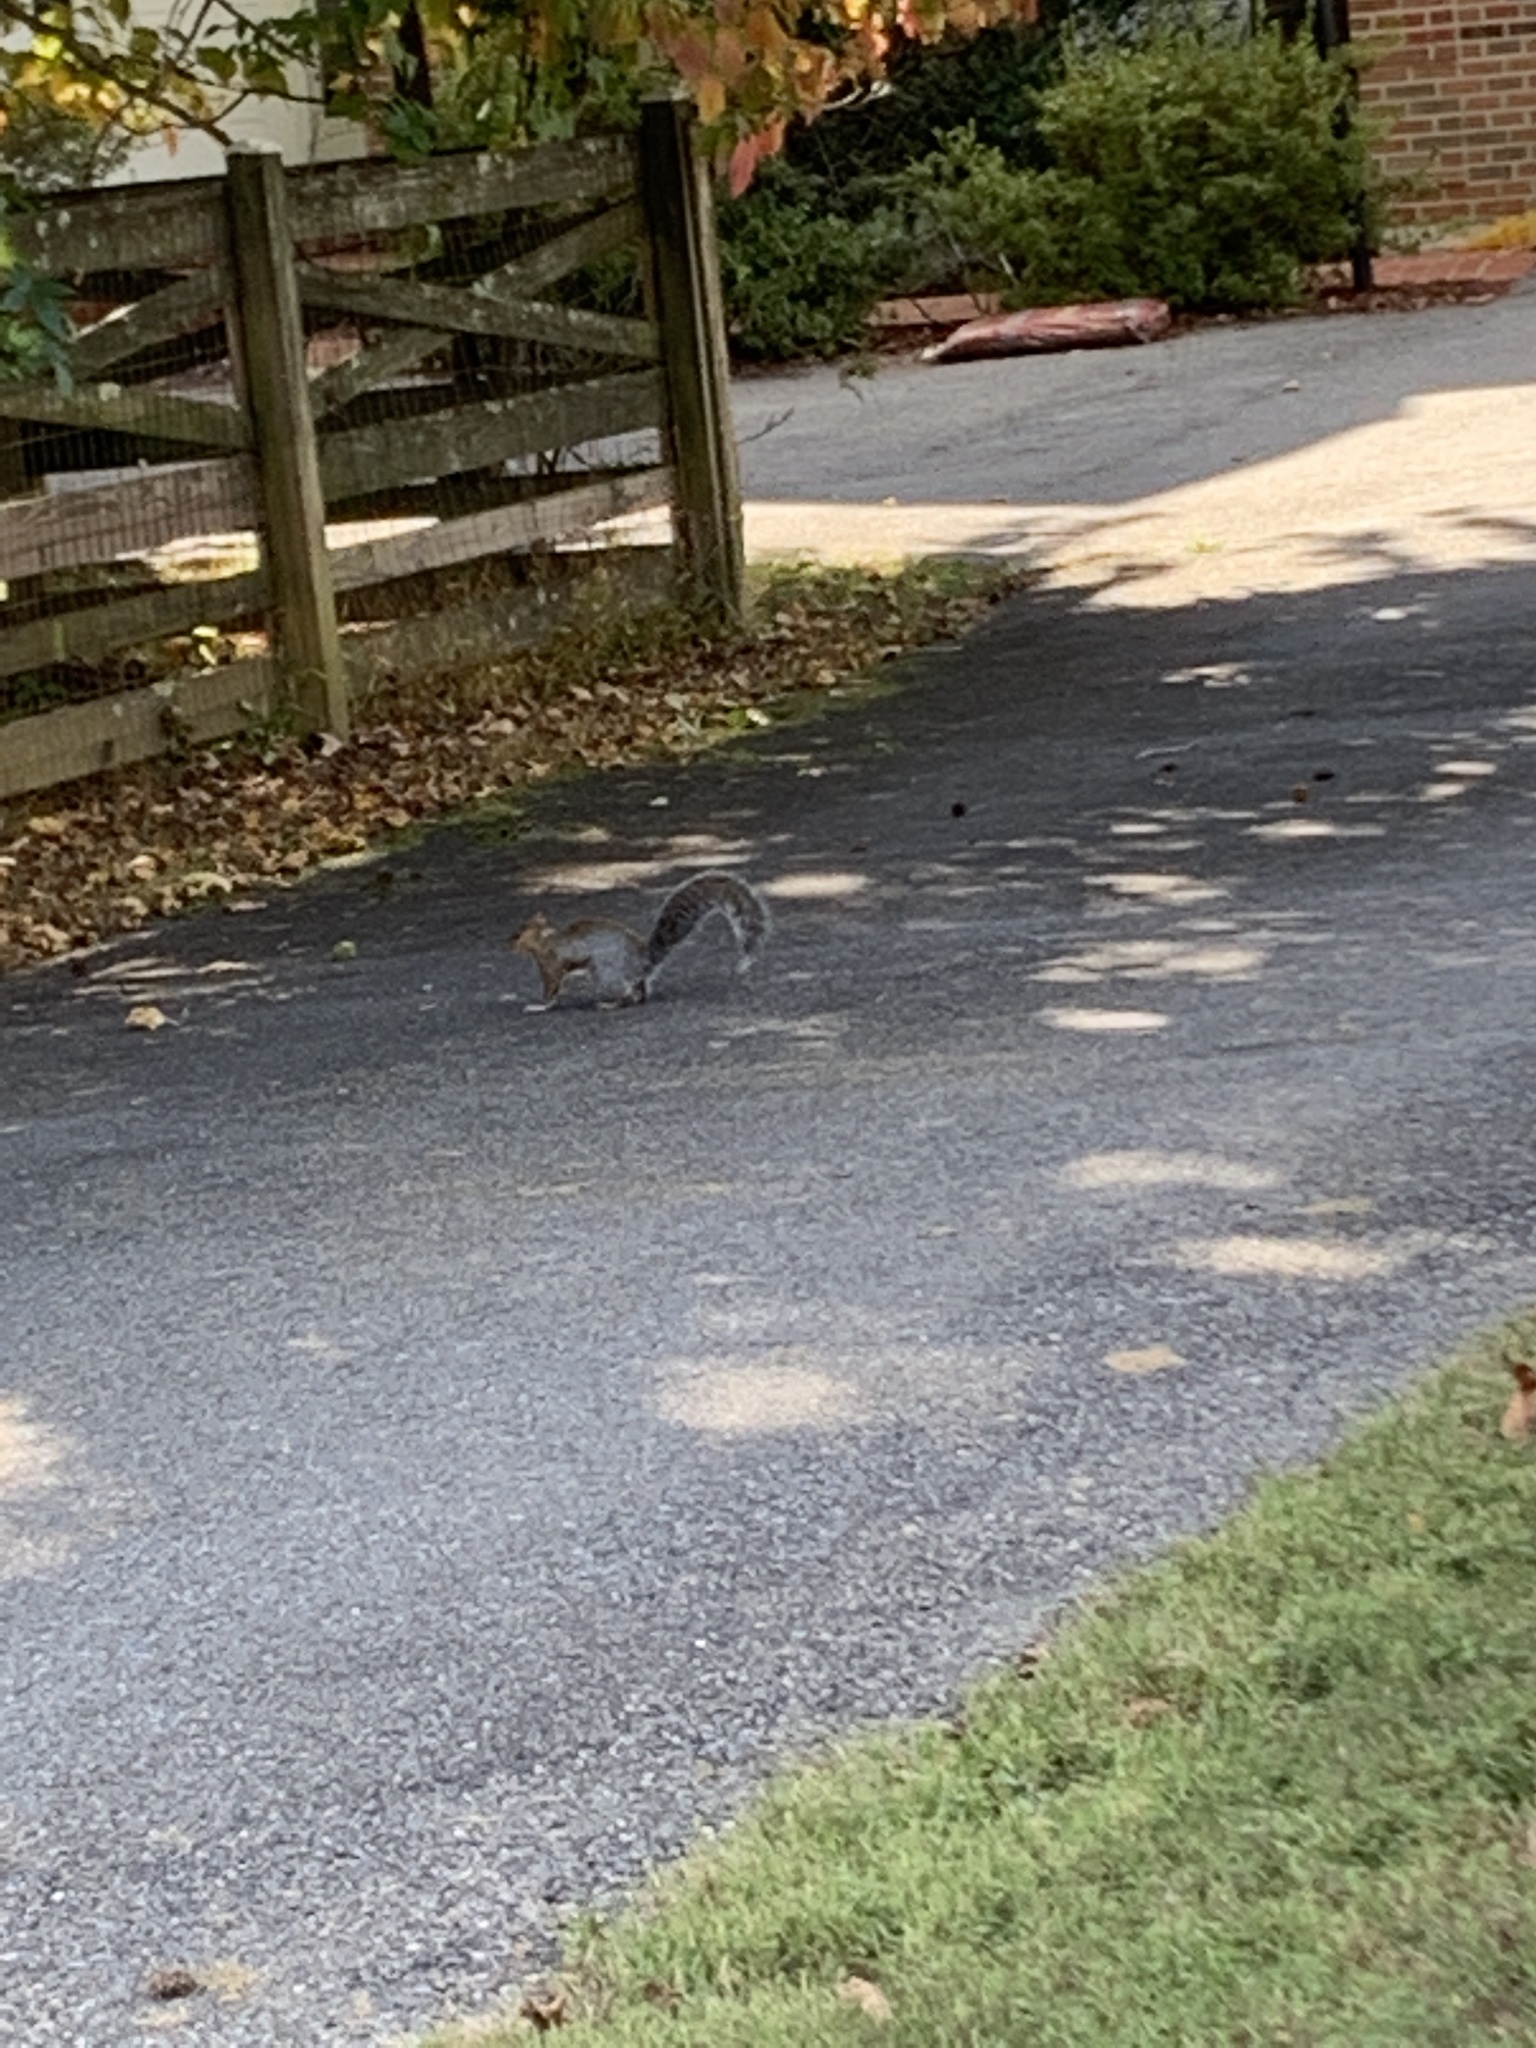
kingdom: Animalia
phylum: Chordata
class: Mammalia
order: Rodentia
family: Sciuridae
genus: Sciurus
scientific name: Sciurus carolinensis
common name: Eastern gray squirrel
